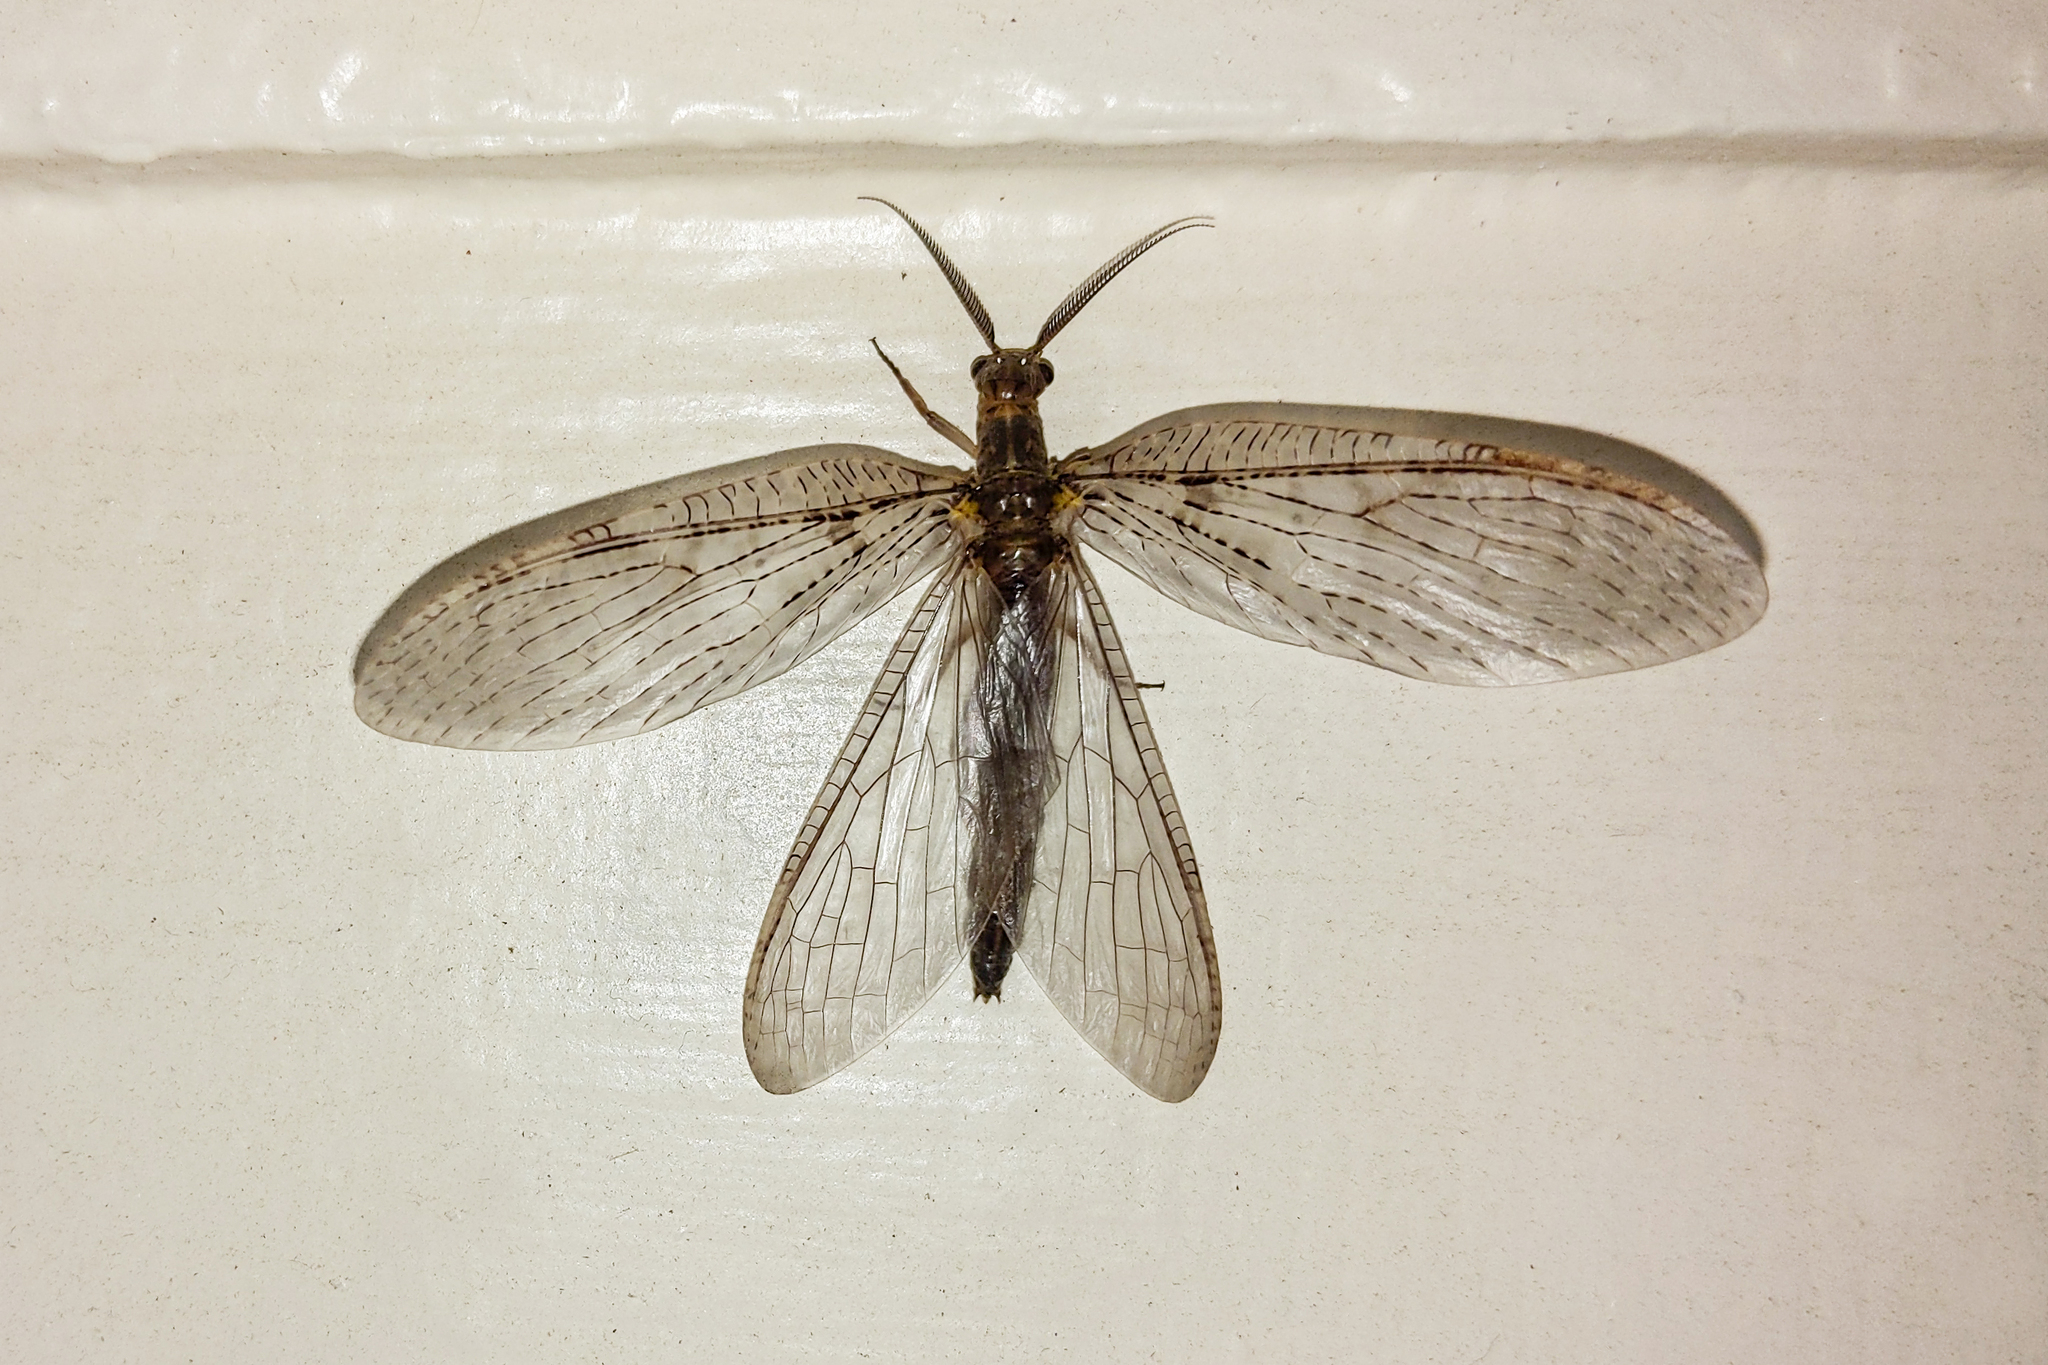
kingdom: Animalia
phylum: Arthropoda
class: Insecta
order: Megaloptera
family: Corydalidae
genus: Chauliodes
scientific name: Chauliodes pectinicornis
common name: Summer fishfly
